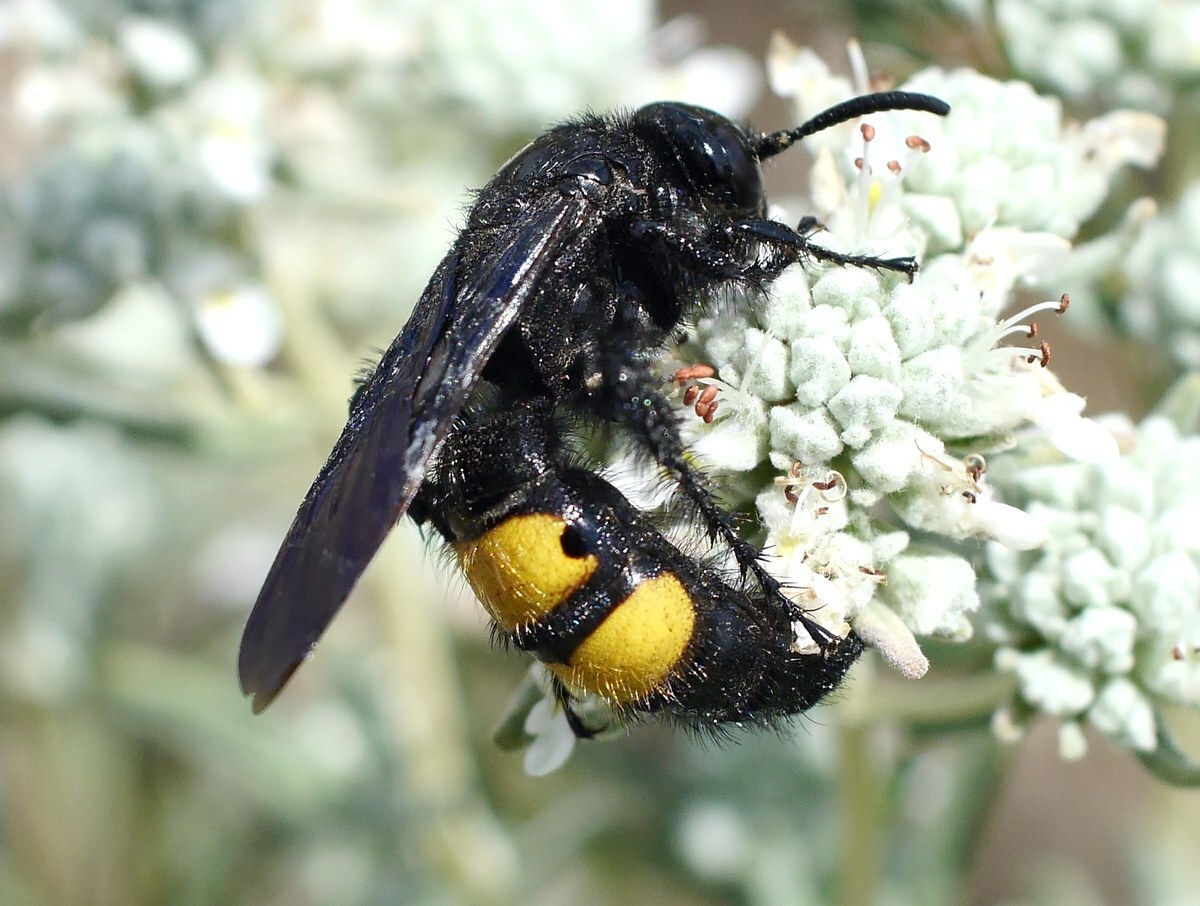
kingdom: Animalia
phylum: Arthropoda
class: Insecta
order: Hymenoptera
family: Scoliidae
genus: Scolia
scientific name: Scolia hirta
